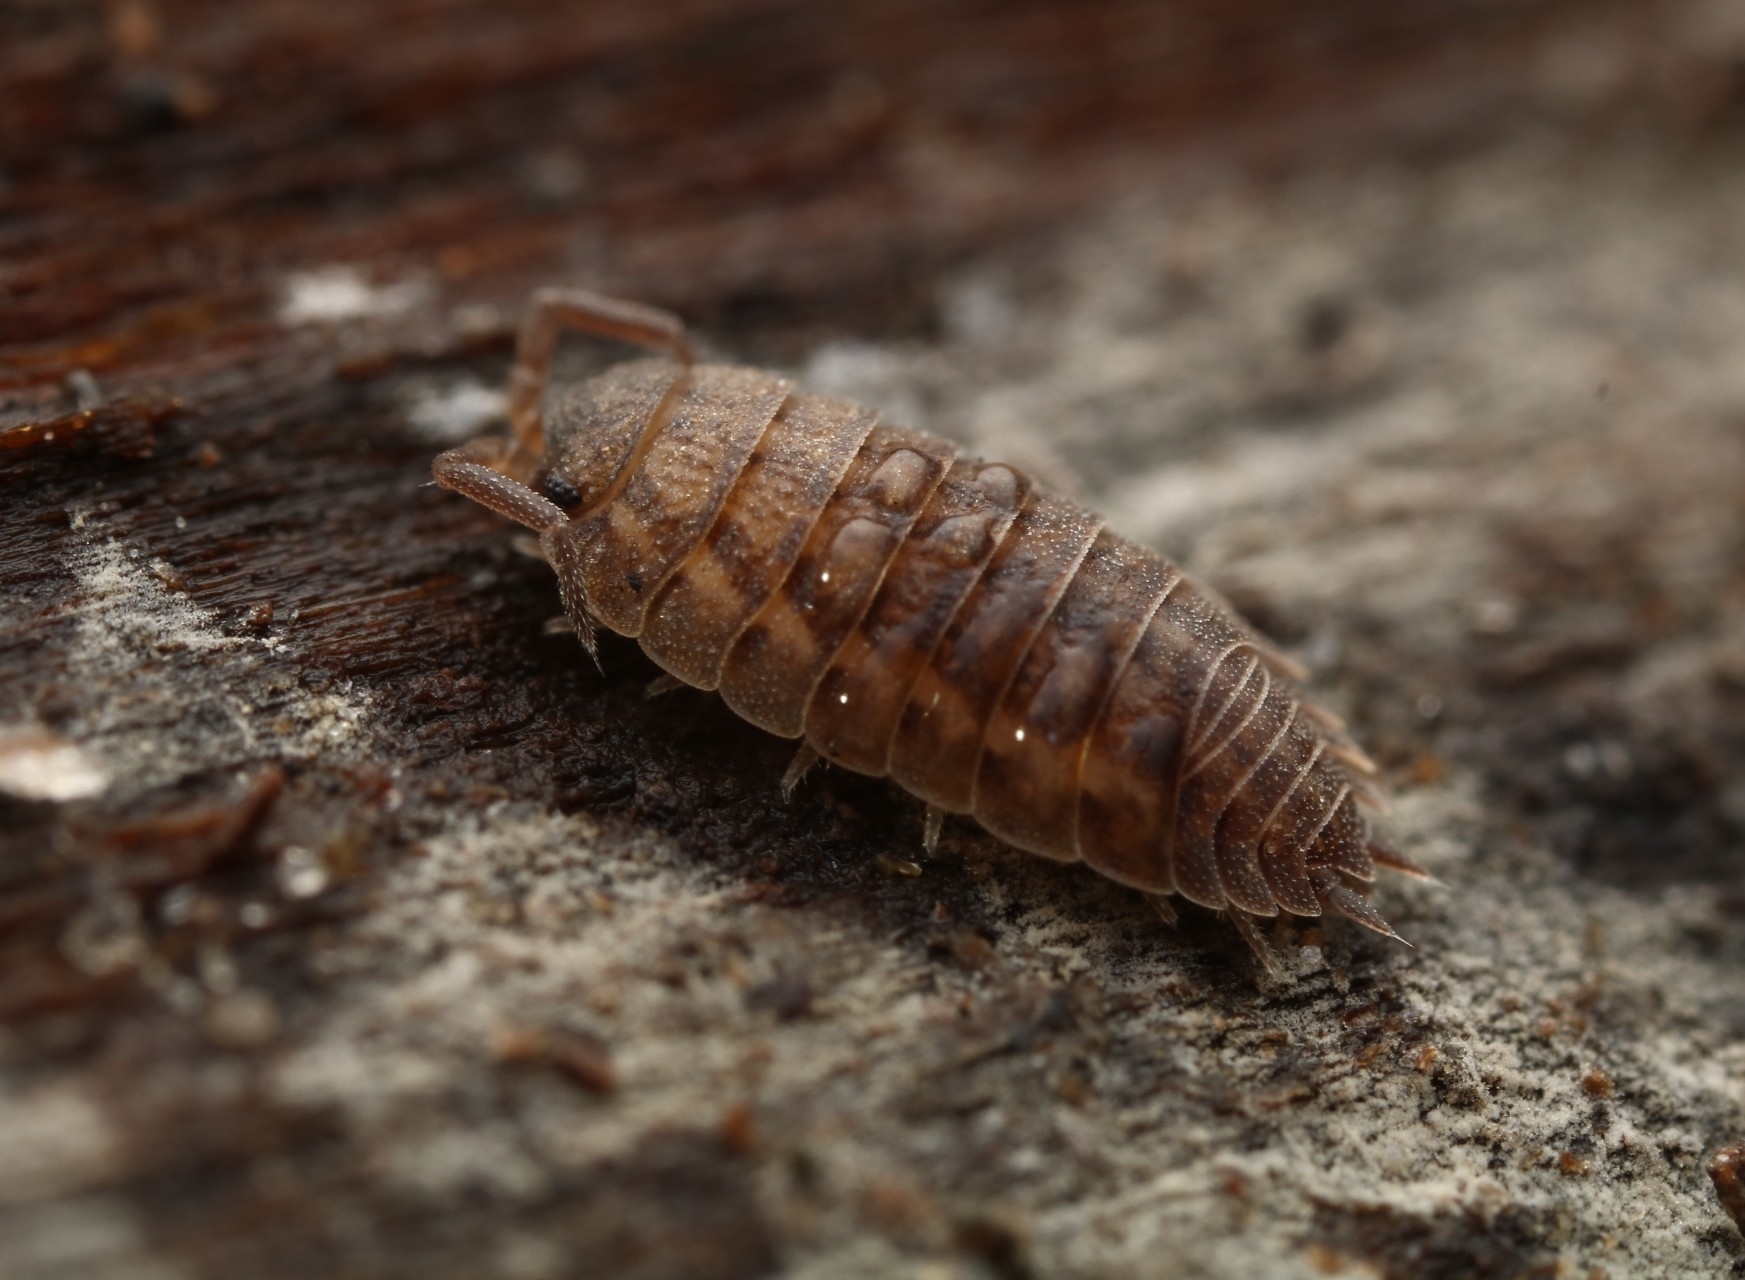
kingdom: Animalia
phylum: Arthropoda
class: Malacostraca
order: Isopoda
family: Trachelipodidae
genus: Trachelipus
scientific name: Trachelipus rathkii
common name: Isopod
